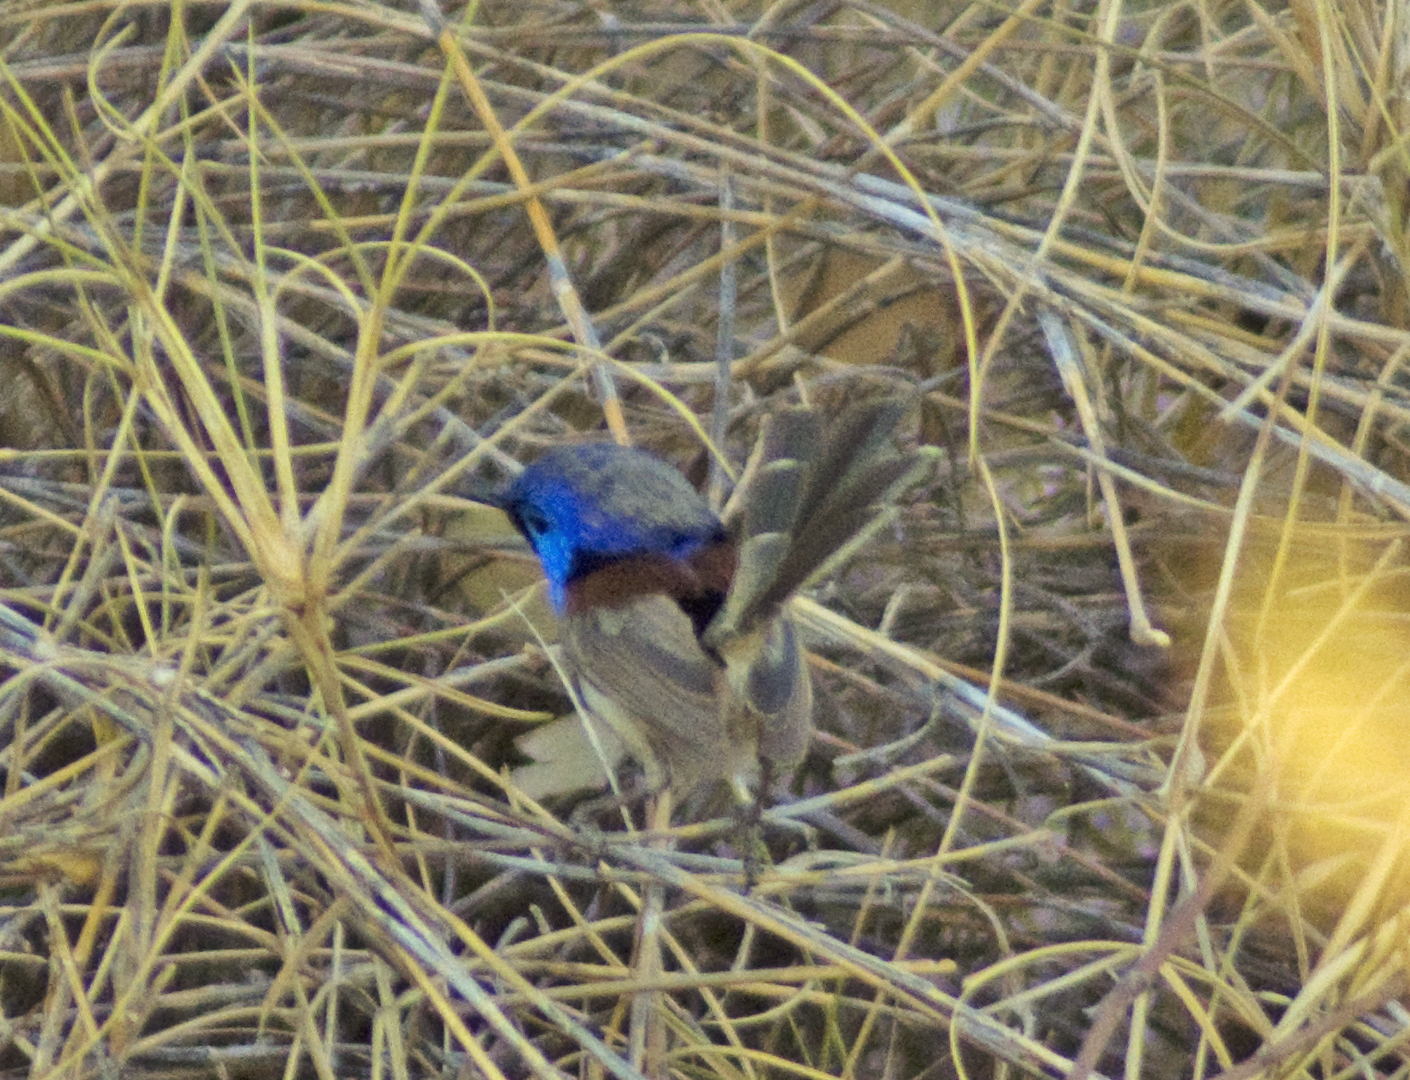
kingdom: Animalia
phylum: Chordata
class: Aves
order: Passeriformes
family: Maluridae
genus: Malurus
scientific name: Malurus assimilis
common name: Purple-backed fairywren
